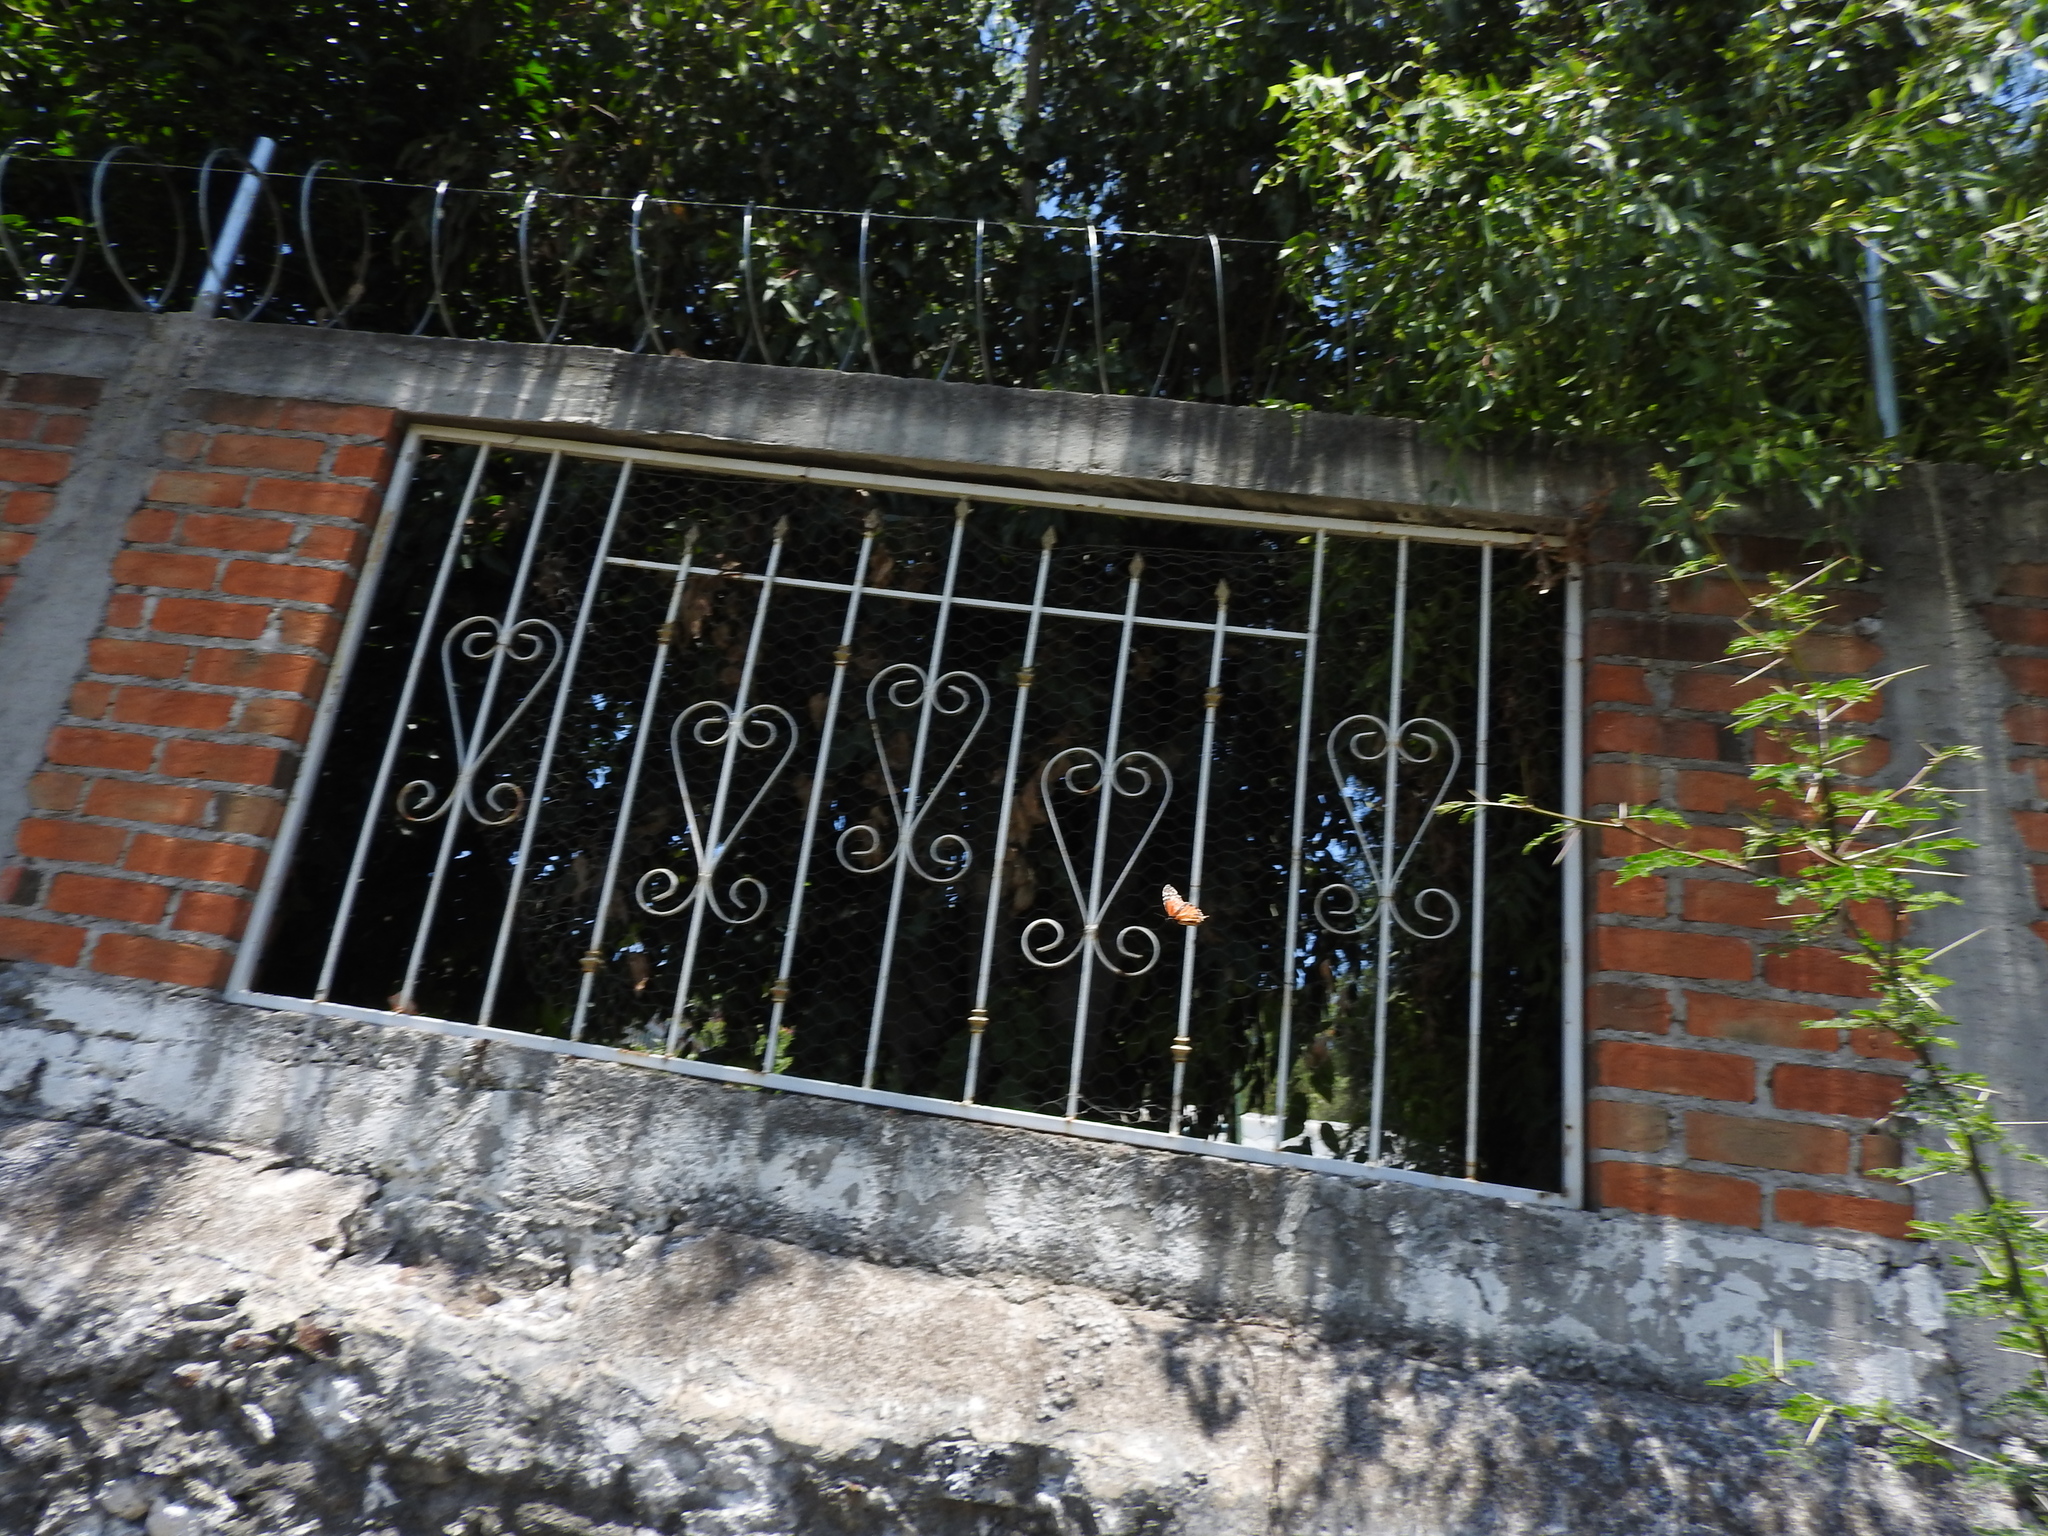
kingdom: Animalia
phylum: Arthropoda
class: Insecta
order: Lepidoptera
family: Nymphalidae
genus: Danaus
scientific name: Danaus plexippus
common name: Monarch
